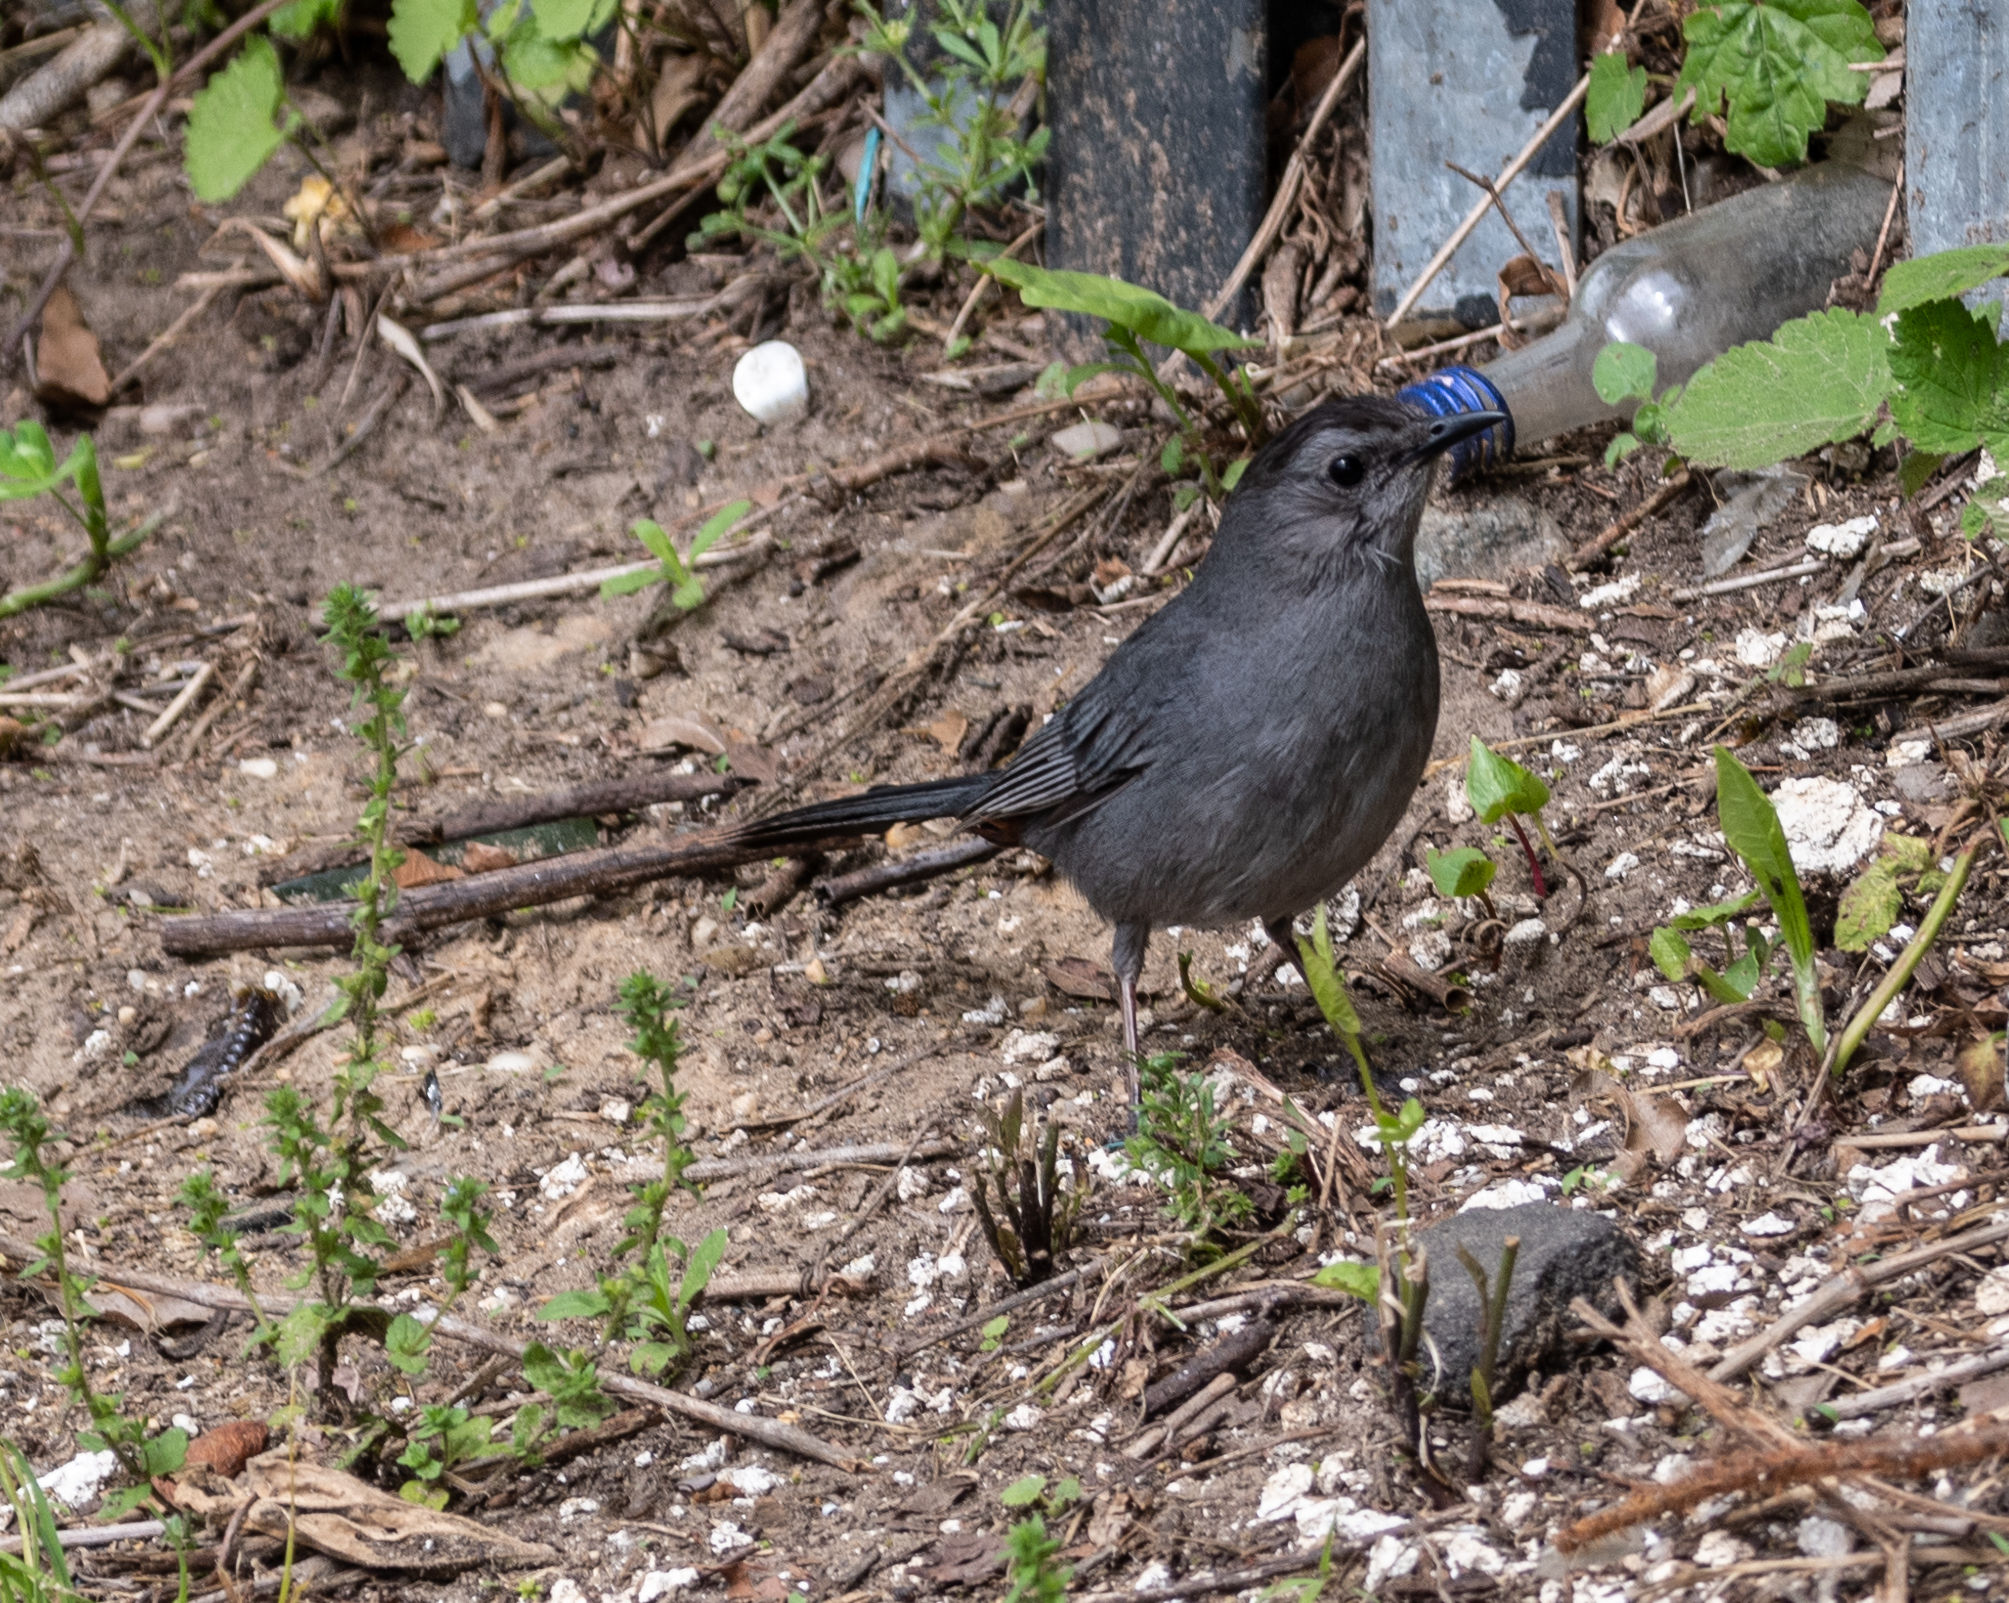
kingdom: Animalia
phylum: Chordata
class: Aves
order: Passeriformes
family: Mimidae
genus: Dumetella
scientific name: Dumetella carolinensis
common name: Gray catbird
